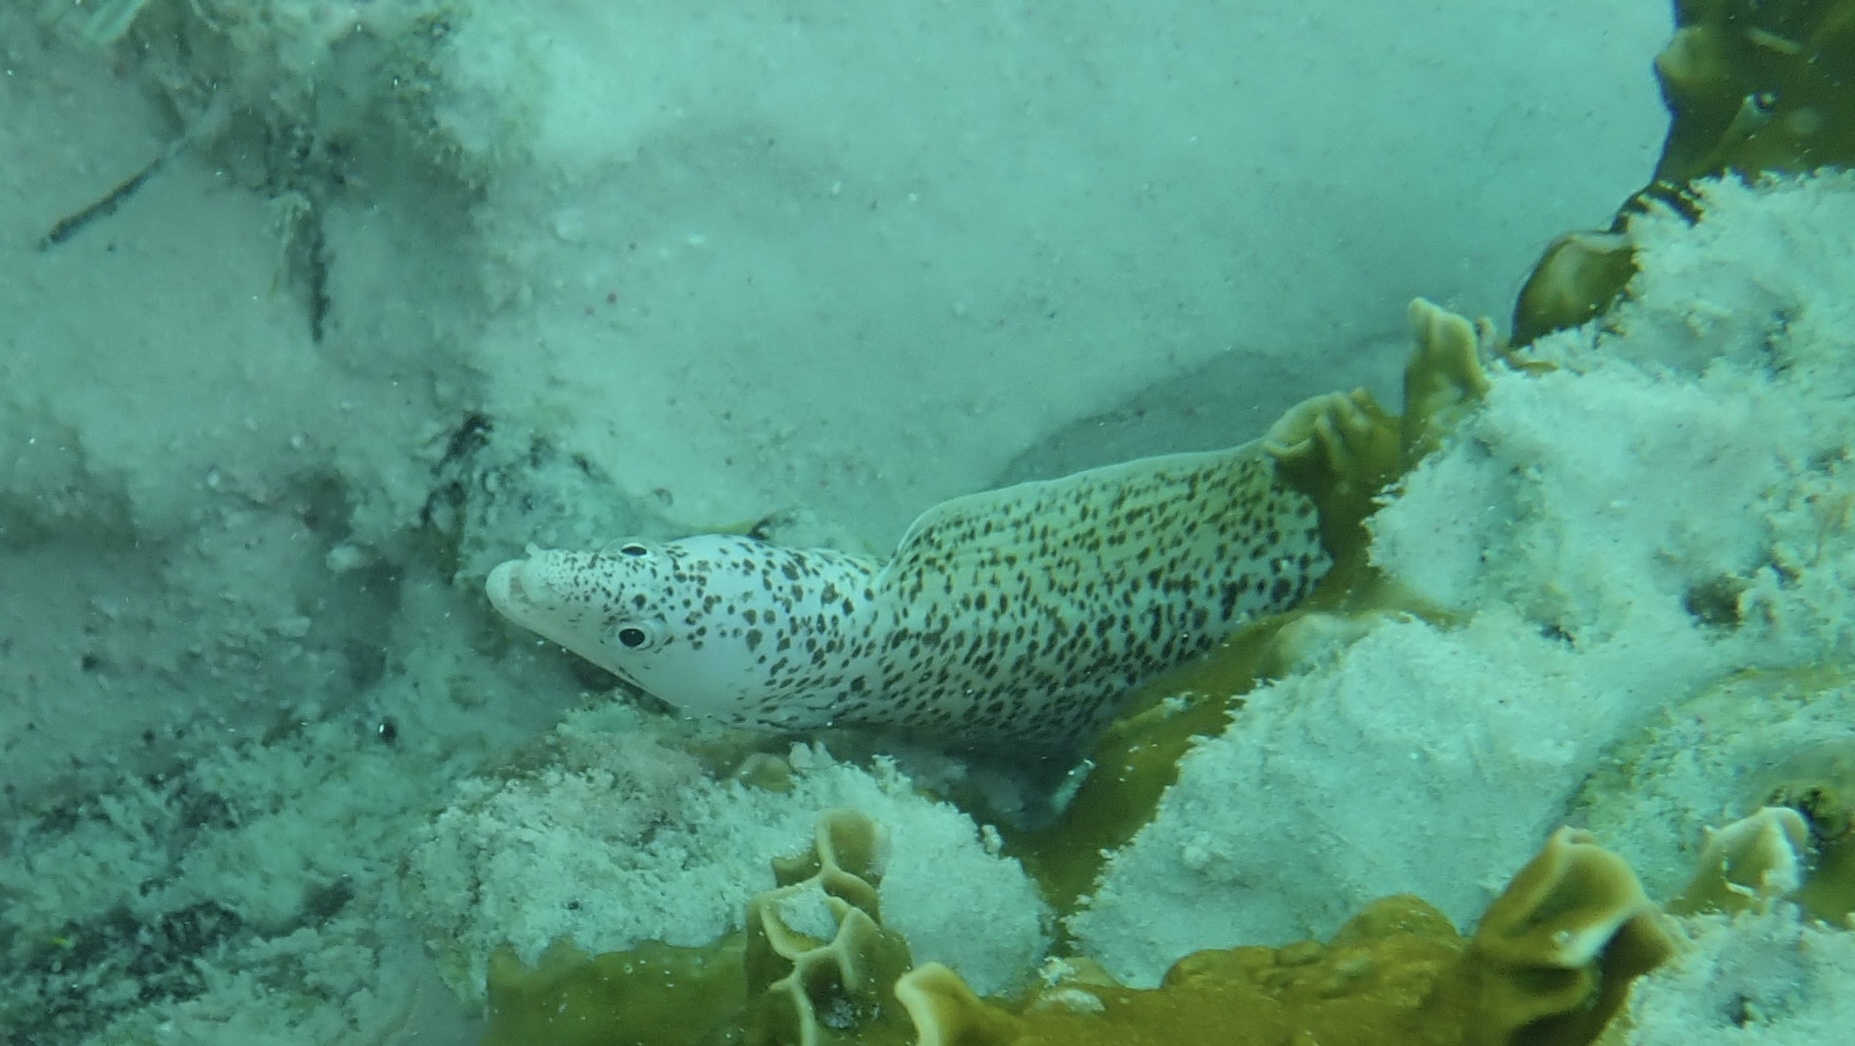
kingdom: Animalia
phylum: Chordata
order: Anguilliformes
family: Muraenidae
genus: Gymnothorax
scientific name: Gymnothorax moringa
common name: Spotted moray
